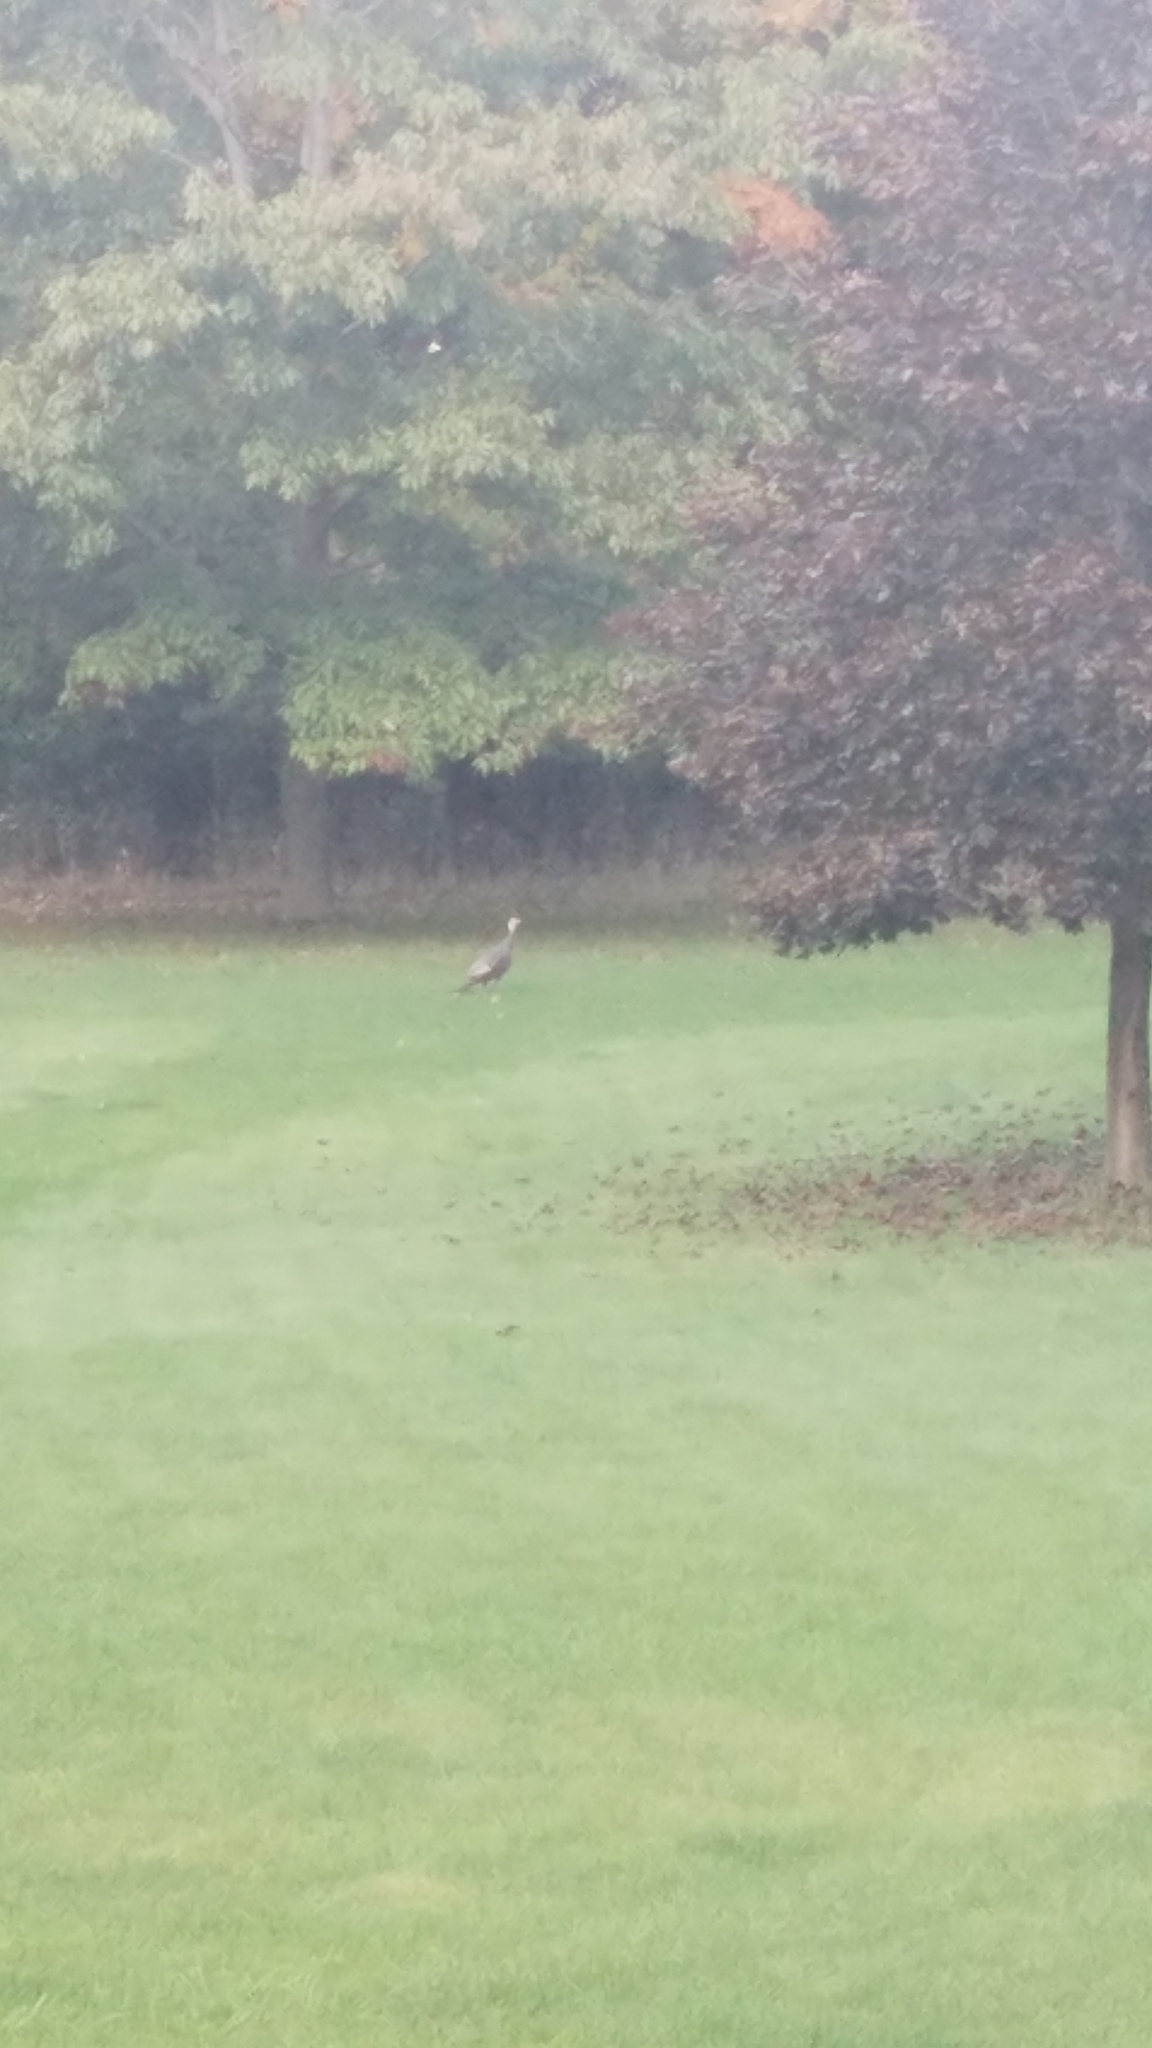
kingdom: Animalia
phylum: Chordata
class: Aves
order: Galliformes
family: Phasianidae
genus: Meleagris
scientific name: Meleagris gallopavo
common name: Wild turkey
